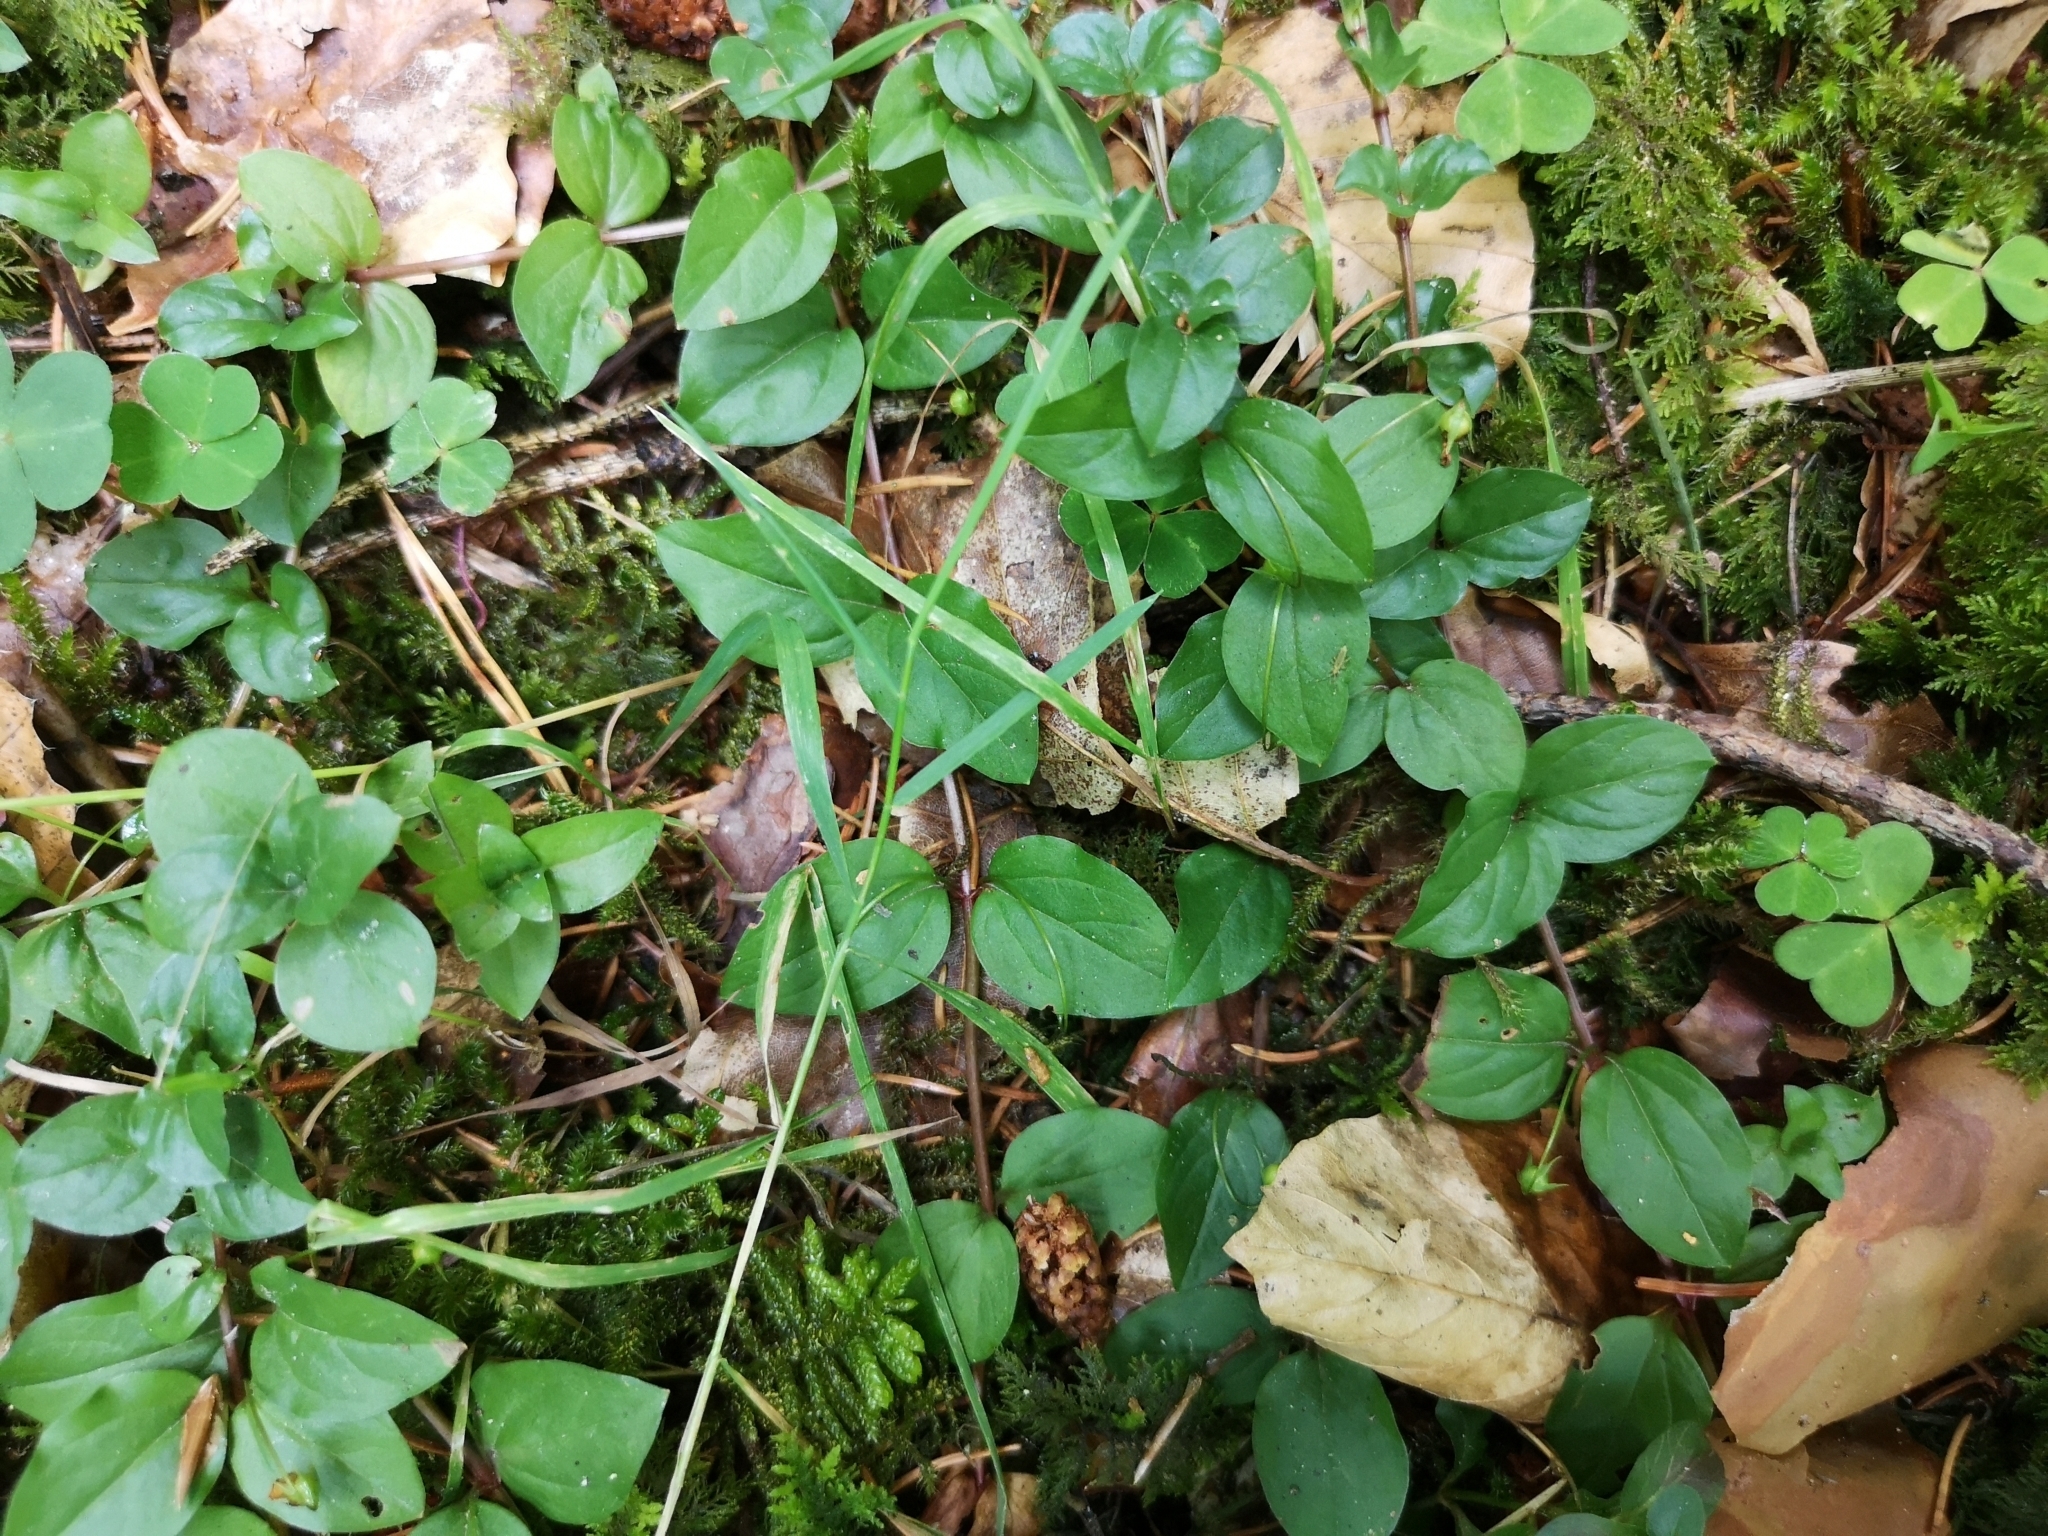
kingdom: Plantae
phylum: Tracheophyta
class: Magnoliopsida
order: Ericales
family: Primulaceae
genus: Lysimachia
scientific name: Lysimachia nemorum
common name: Yellow pimpernel
